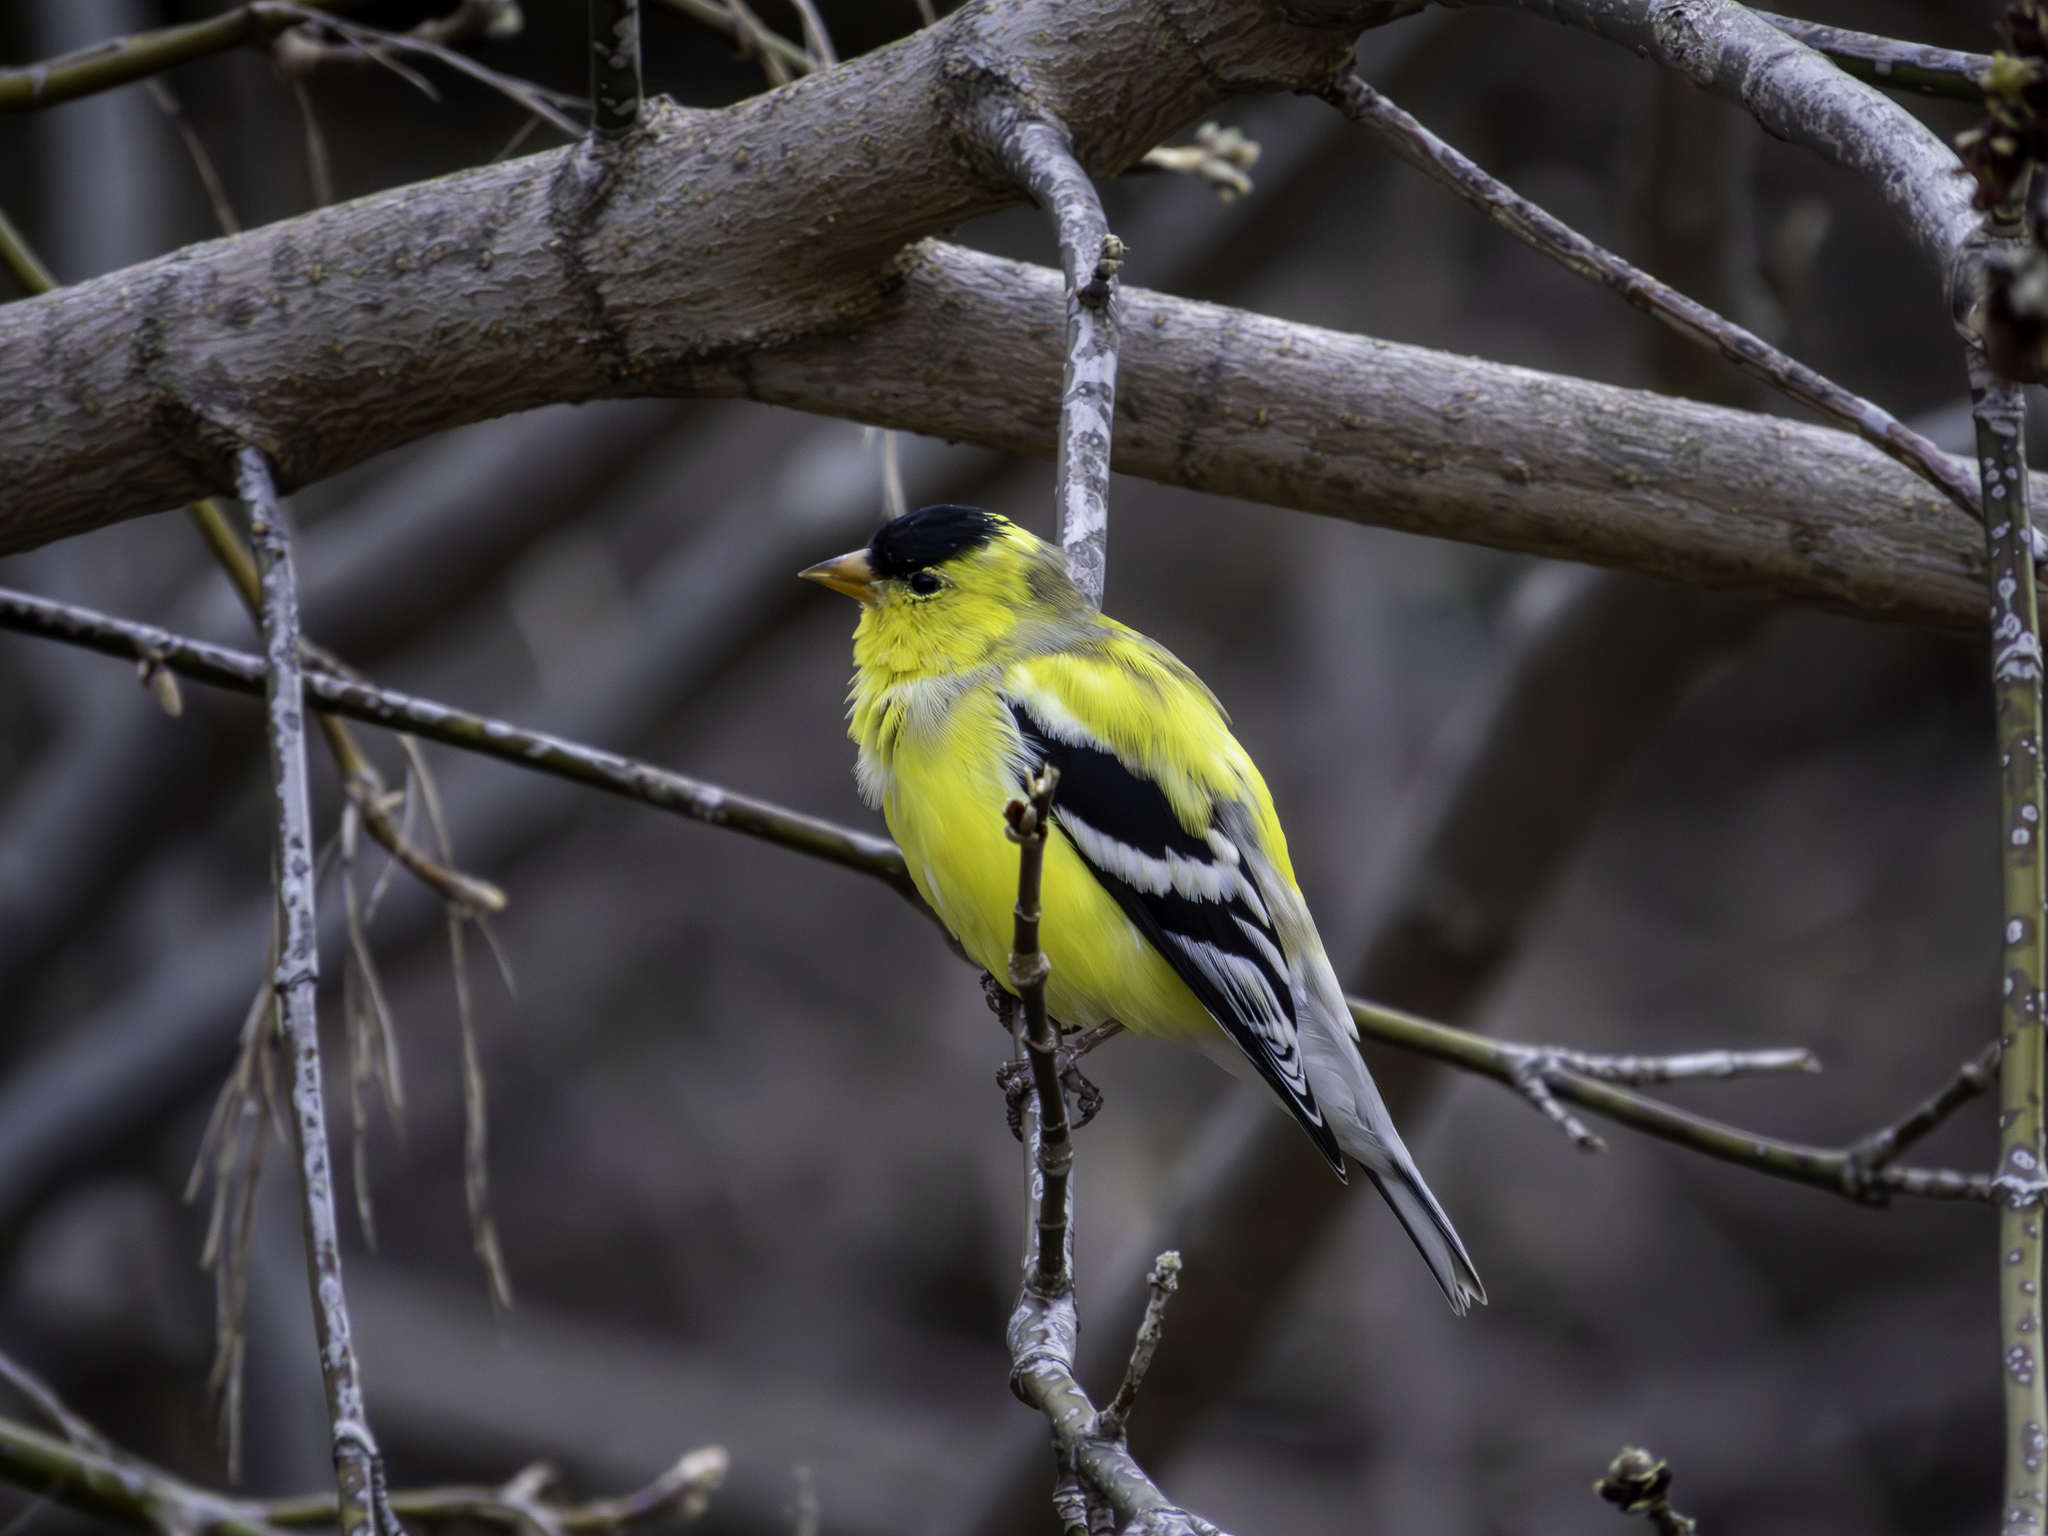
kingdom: Animalia
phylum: Chordata
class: Aves
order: Passeriformes
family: Fringillidae
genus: Spinus
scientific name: Spinus tristis
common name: American goldfinch
